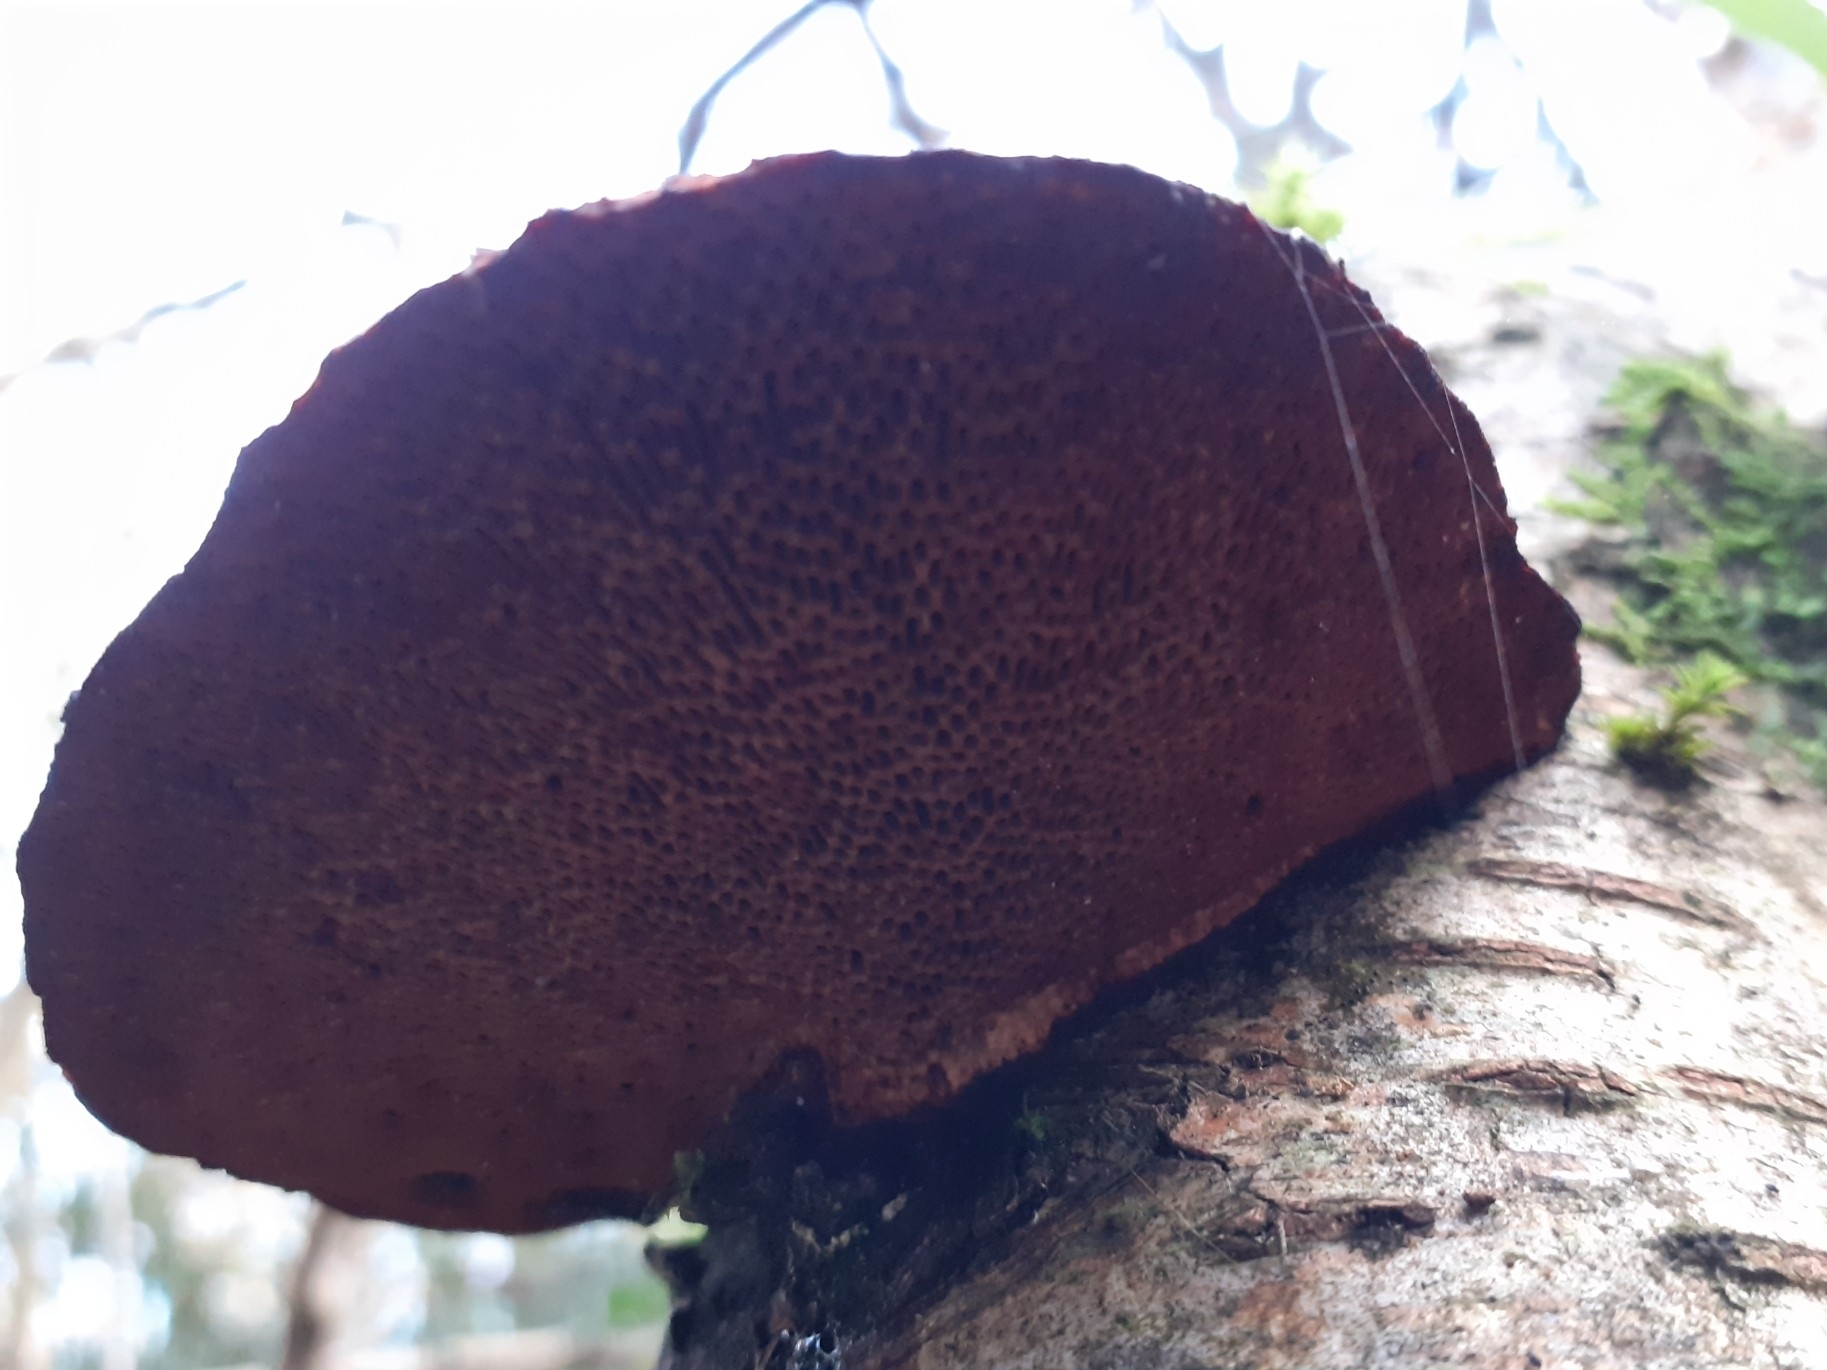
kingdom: Fungi
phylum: Basidiomycota
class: Agaricomycetes
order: Polyporales
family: Polyporaceae
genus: Daedaleopsis
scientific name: Daedaleopsis confragosa
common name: Blushing bracket
